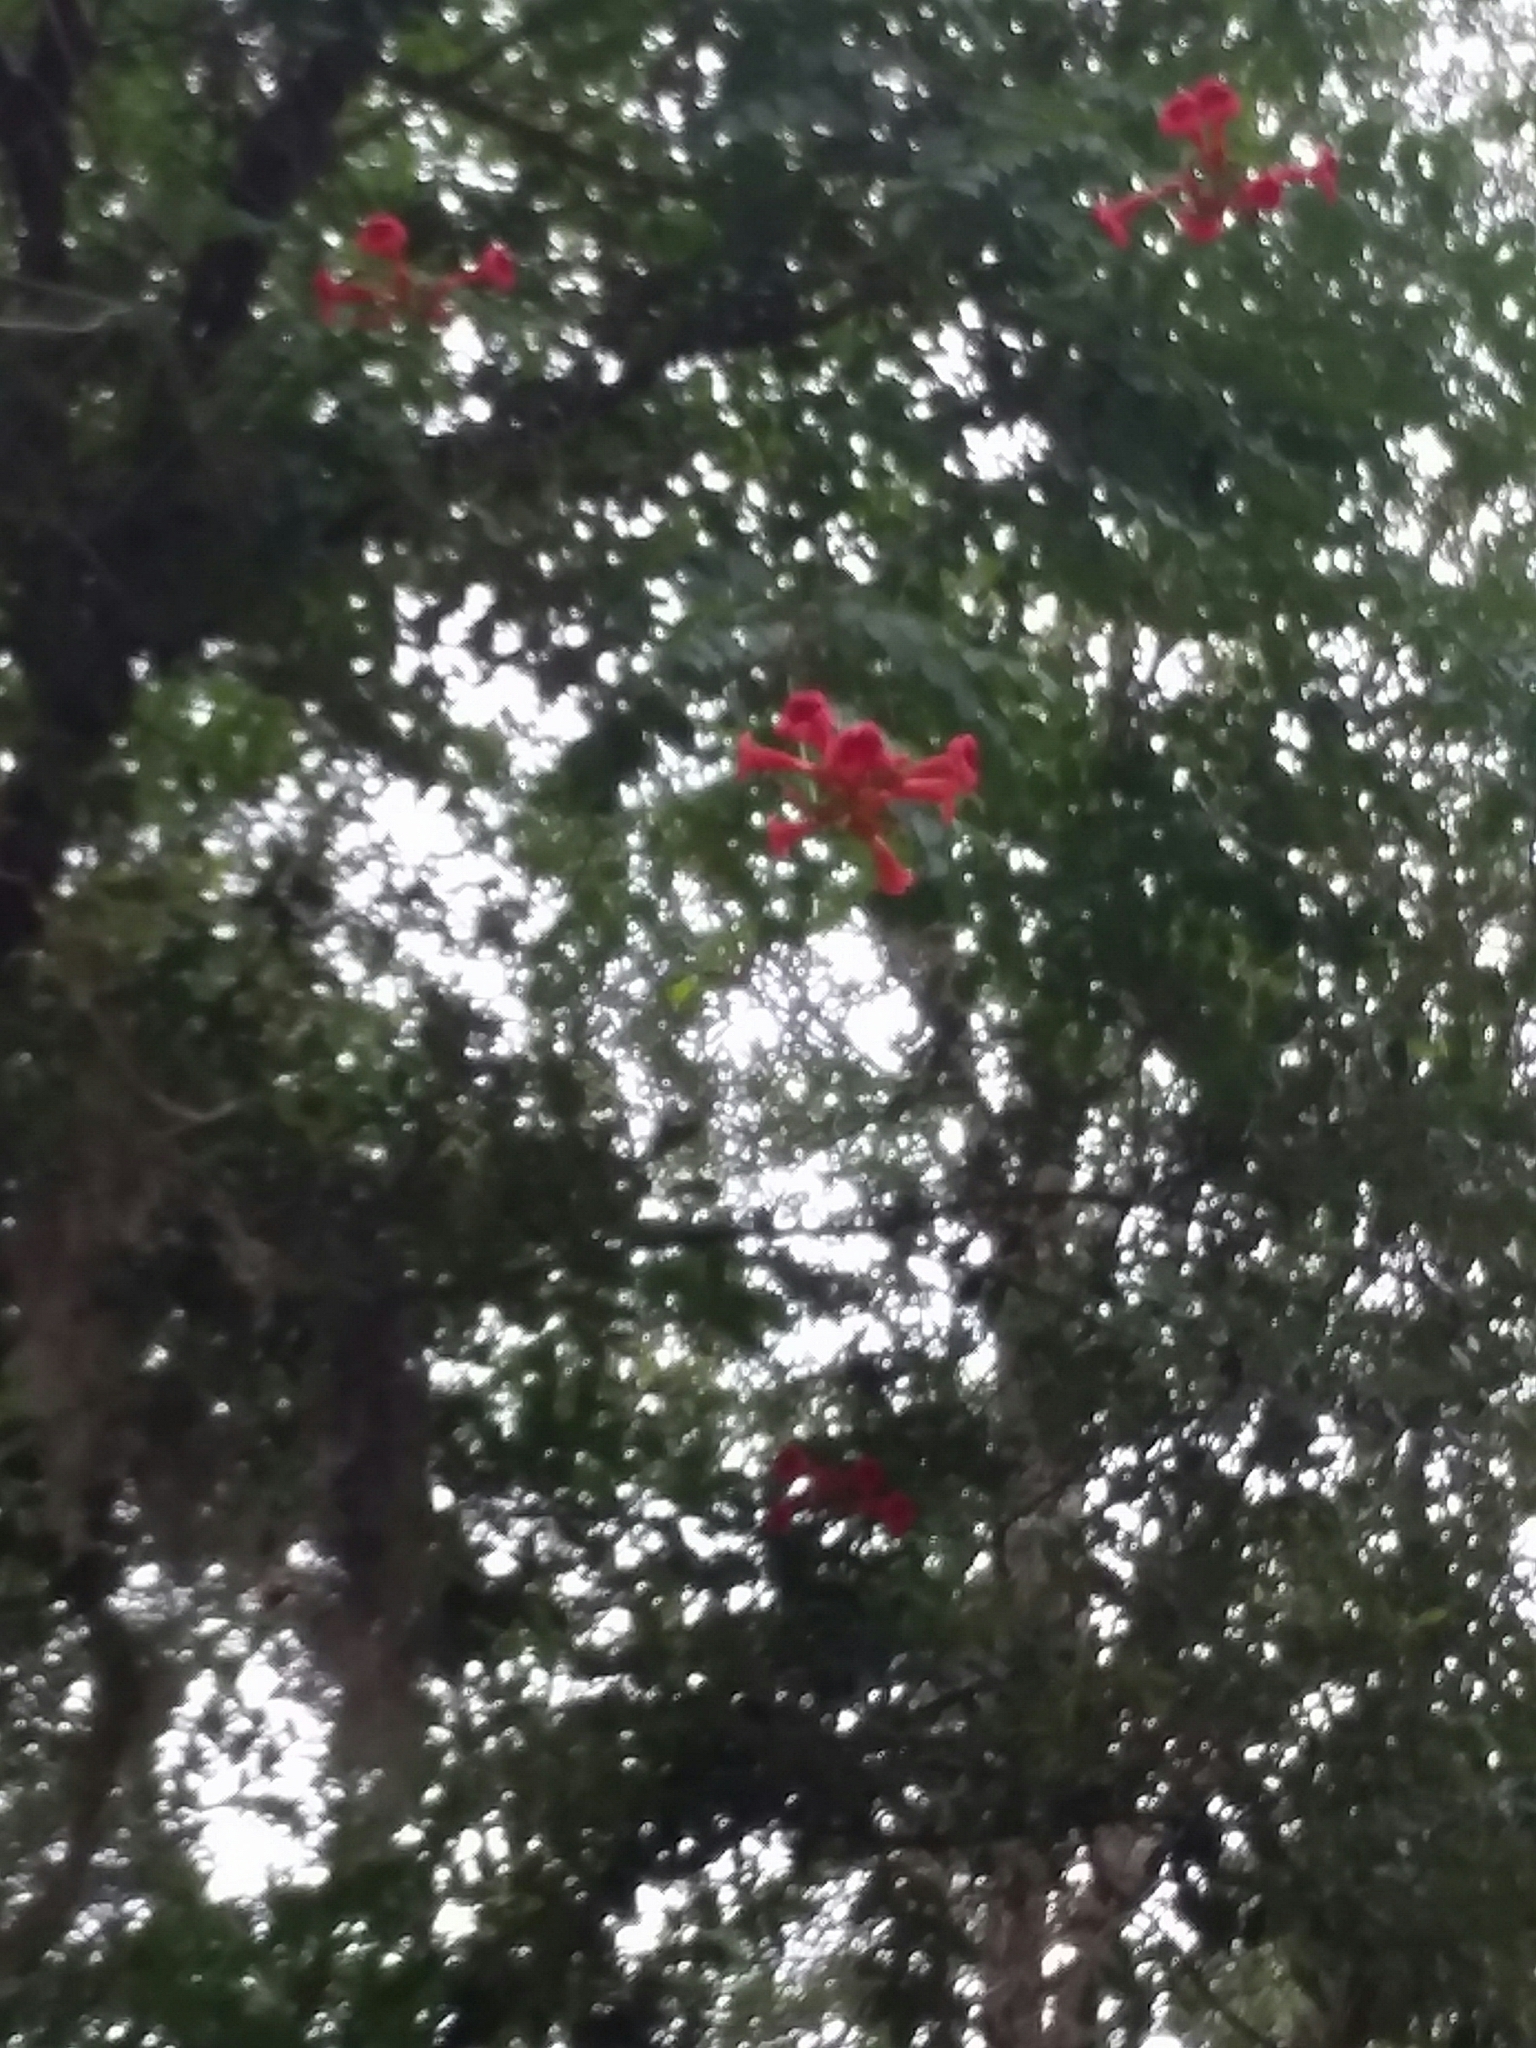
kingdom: Plantae
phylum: Tracheophyta
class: Magnoliopsida
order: Lamiales
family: Bignoniaceae
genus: Campsis
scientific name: Campsis radicans
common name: Trumpet-creeper
